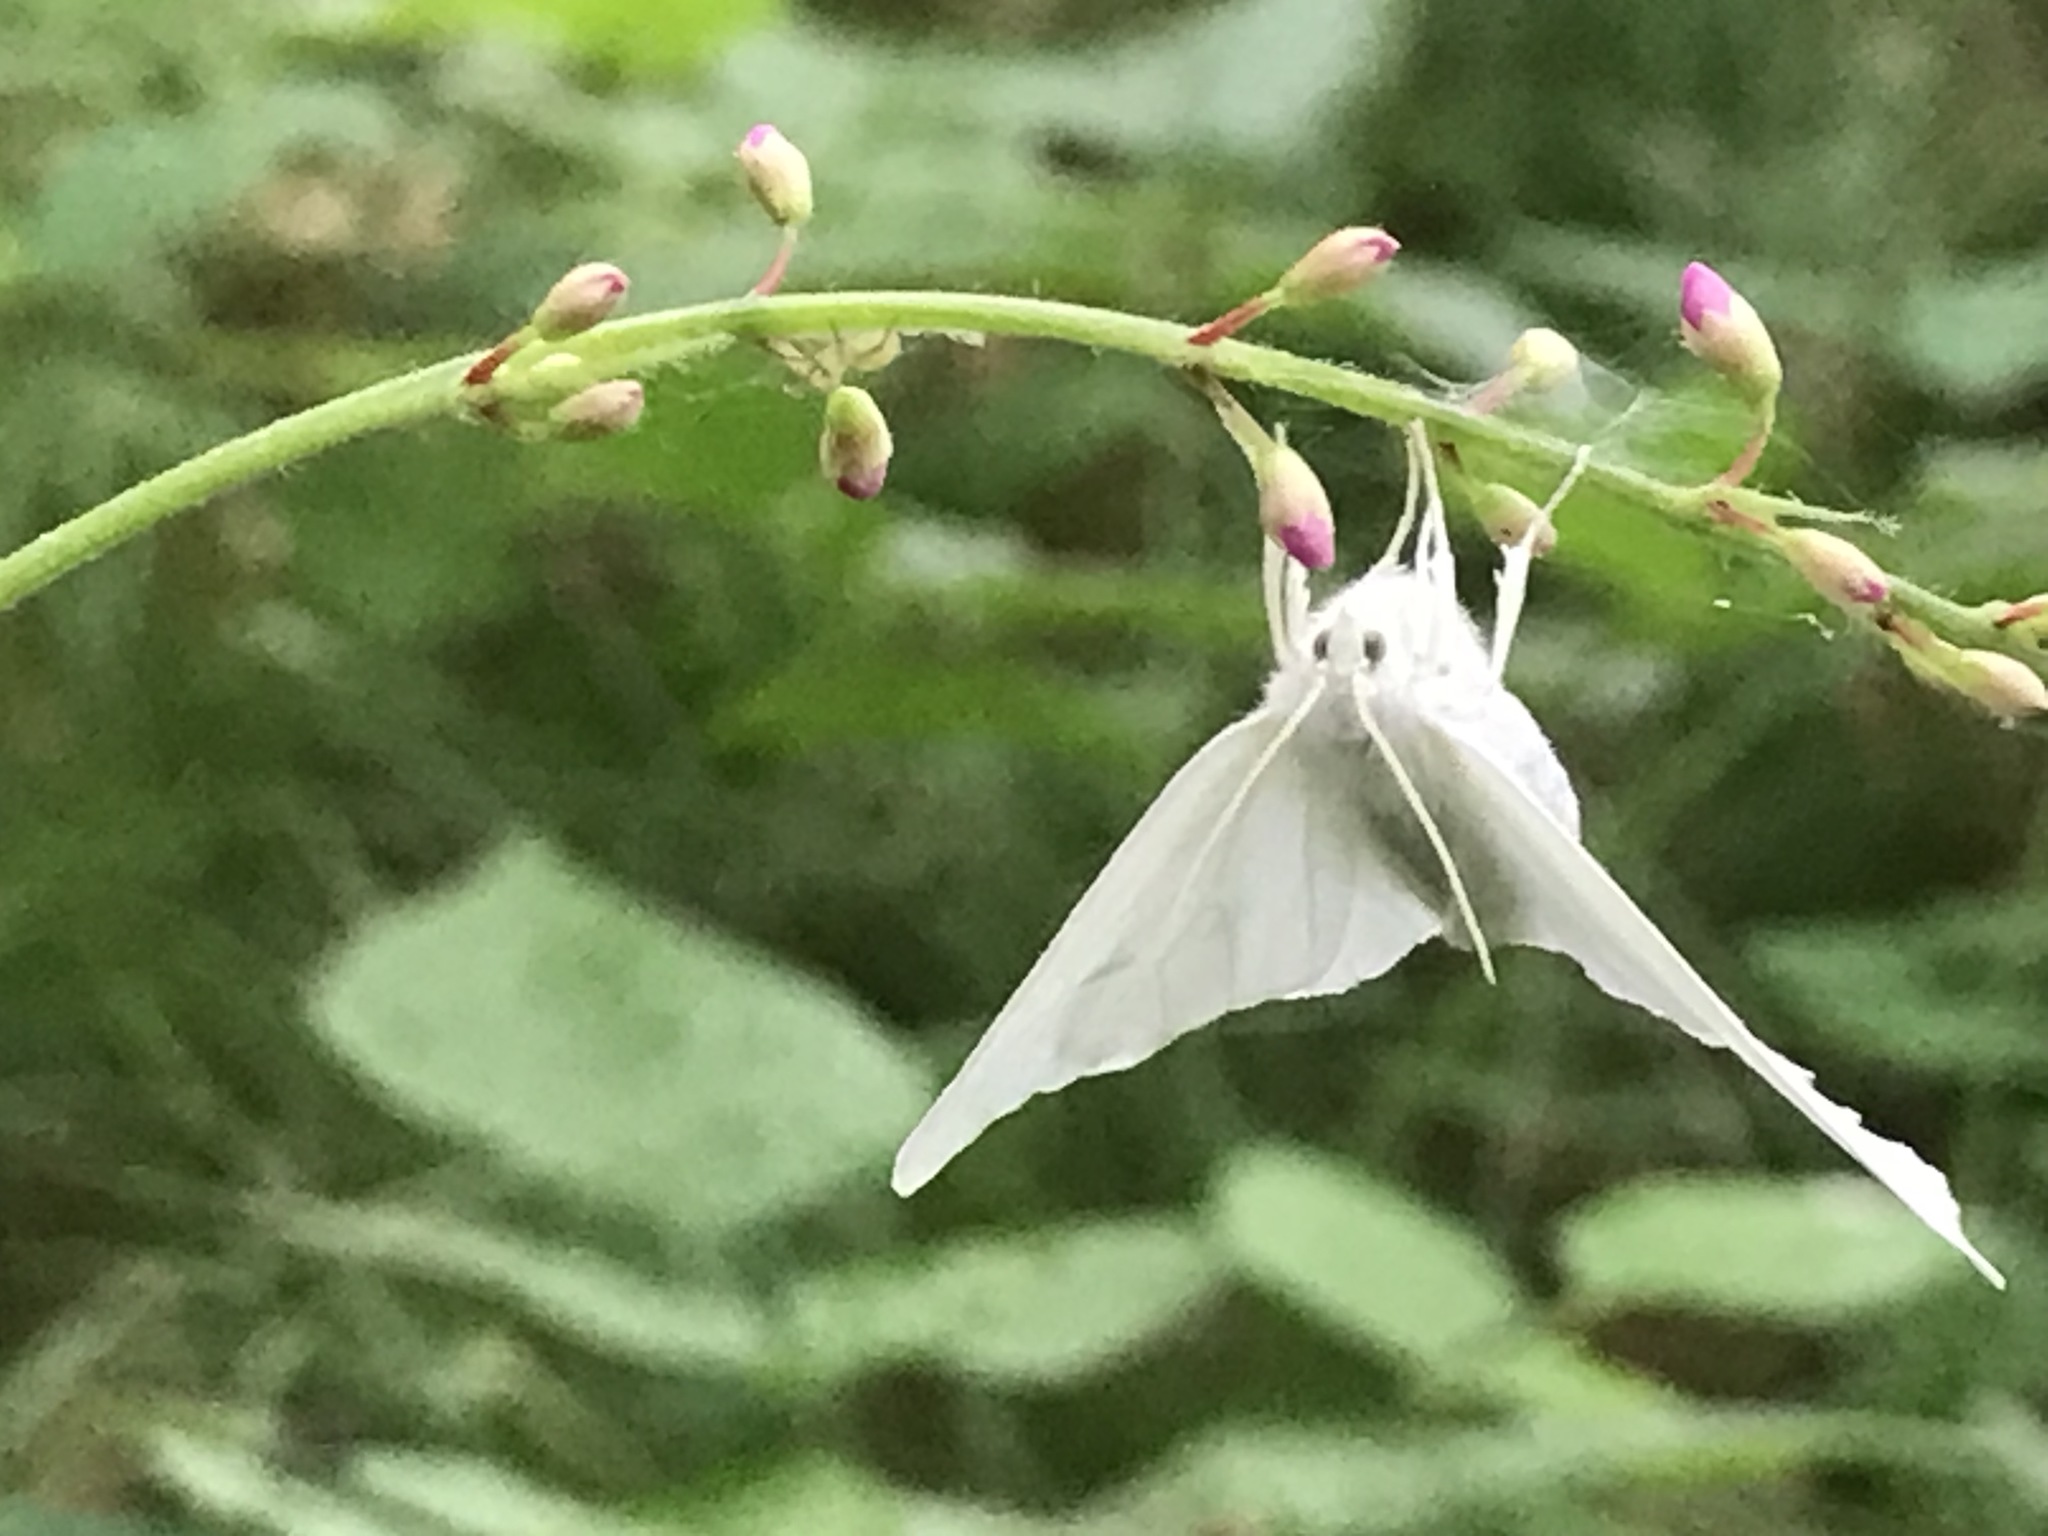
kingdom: Animalia
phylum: Arthropoda
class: Insecta
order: Lepidoptera
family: Geometridae
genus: Ennomos
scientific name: Ennomos subsignaria
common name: Elm spanworm
